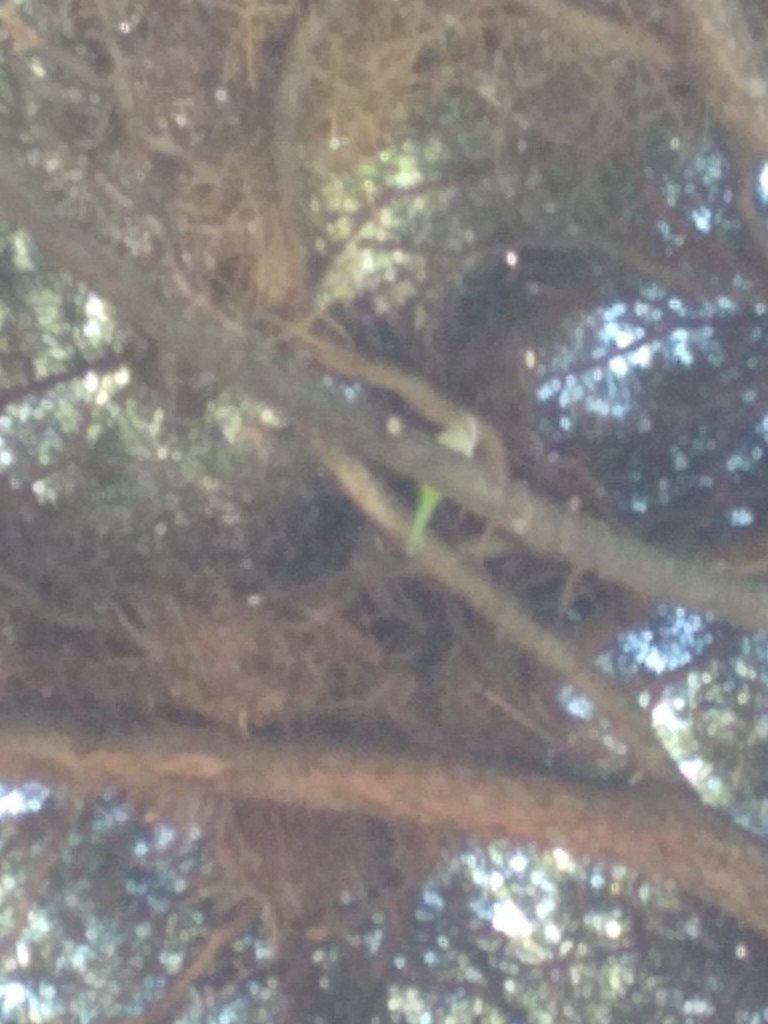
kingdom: Animalia
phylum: Chordata
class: Aves
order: Psittaciformes
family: Psittacidae
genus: Myiopsitta
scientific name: Myiopsitta monachus
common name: Monk parakeet
